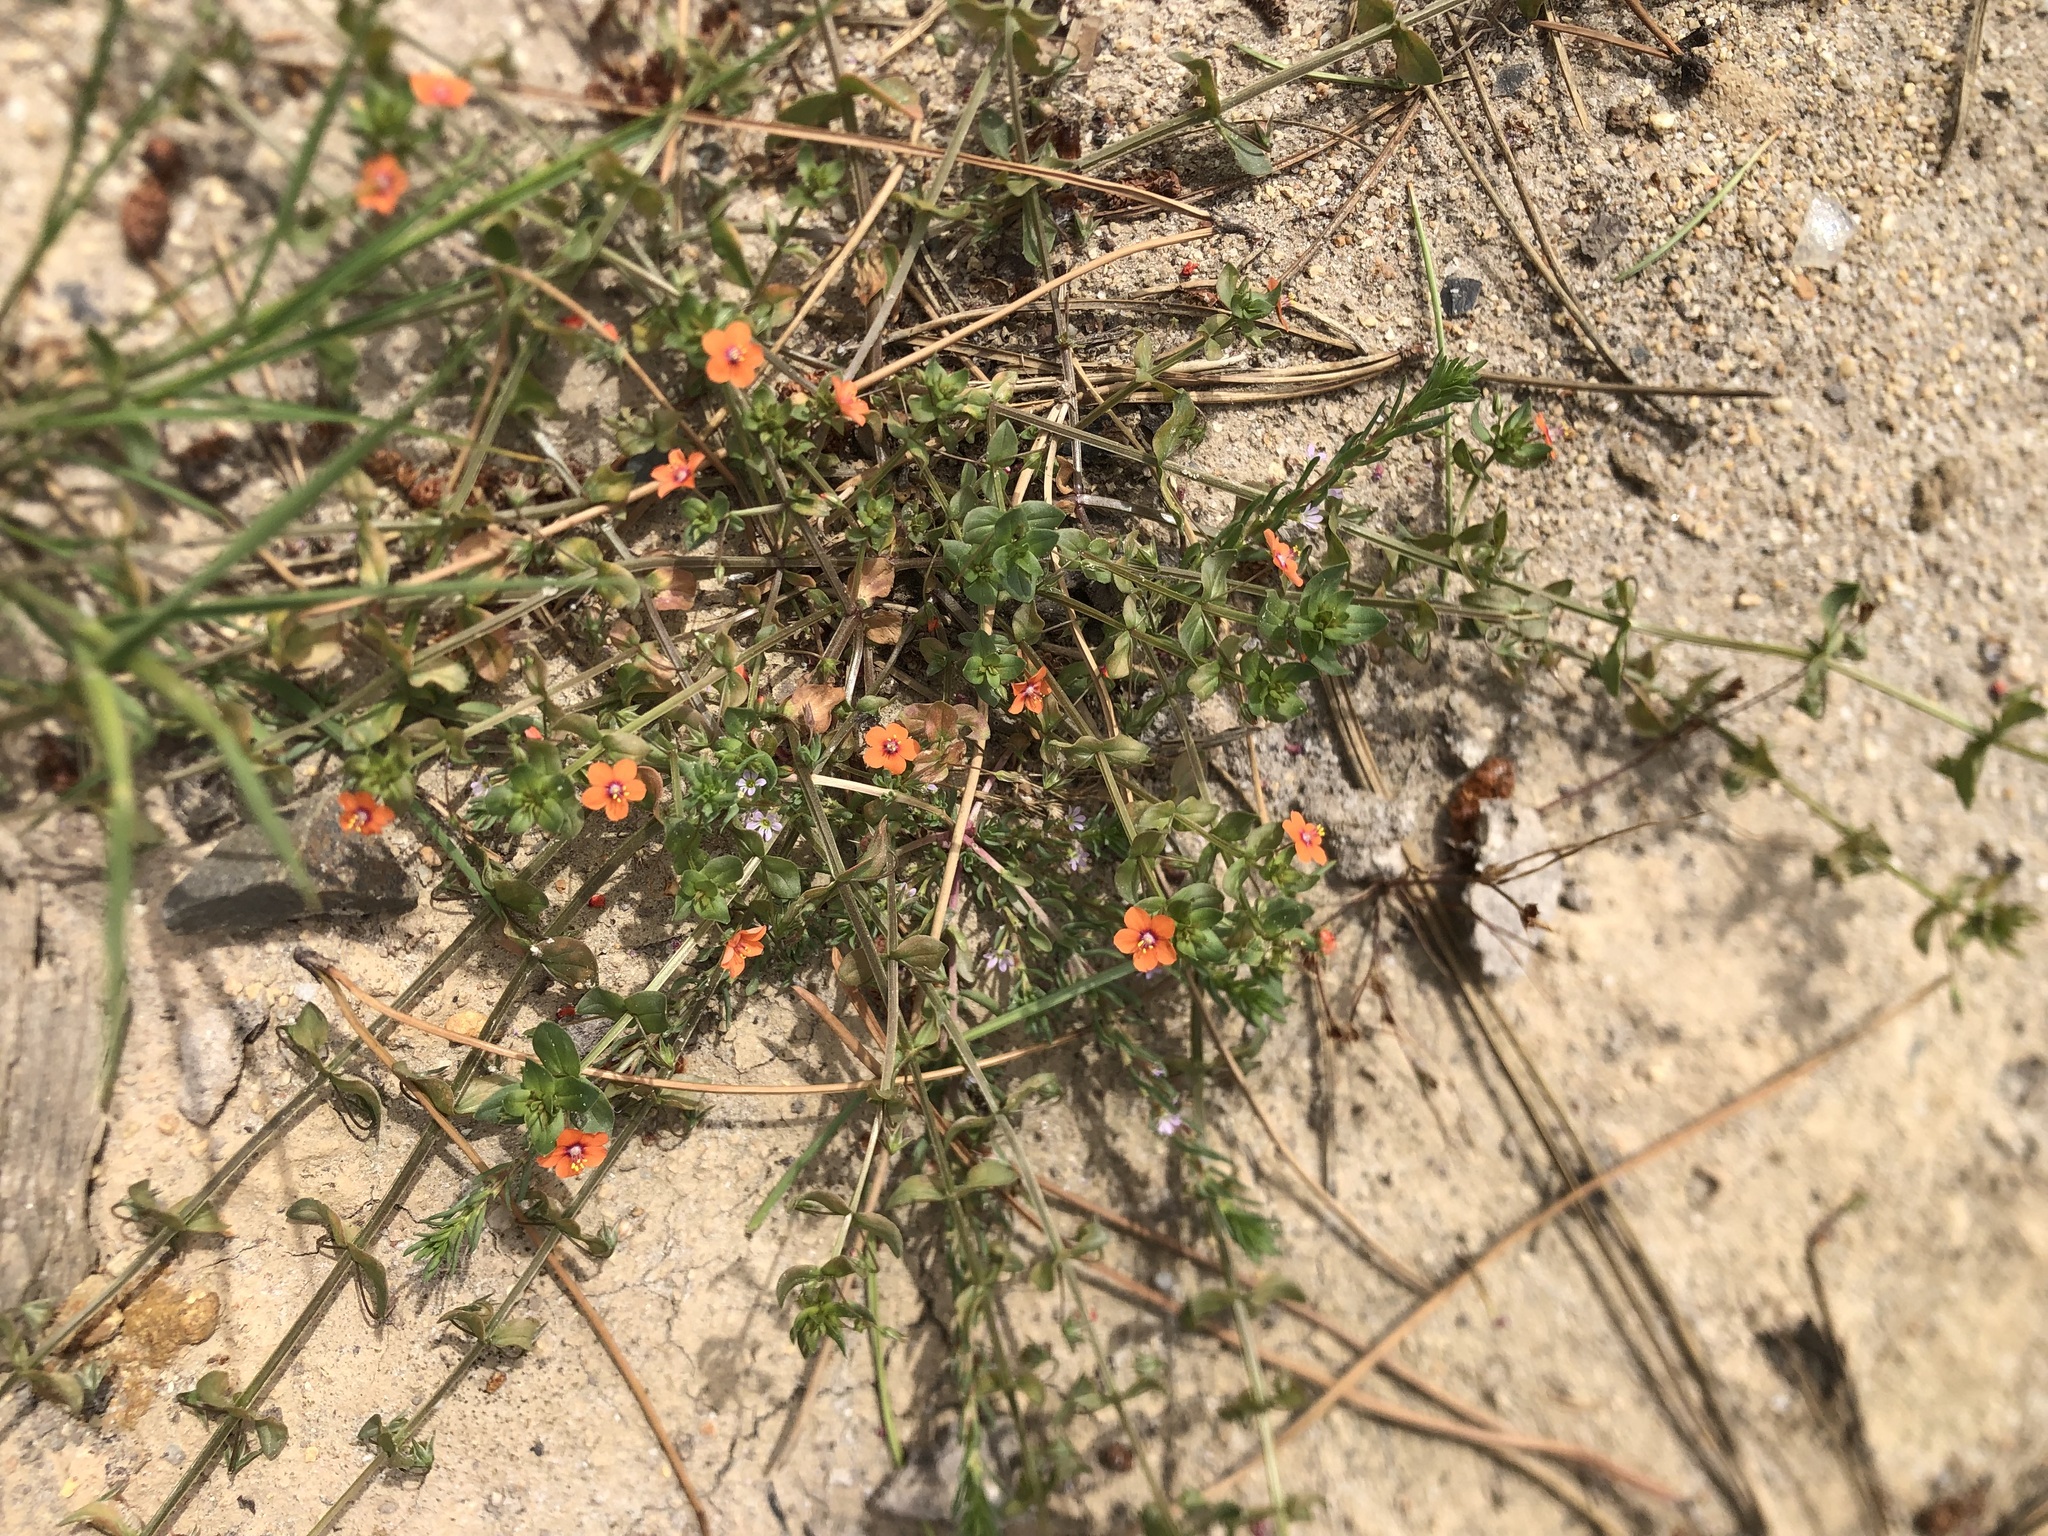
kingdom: Plantae
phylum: Tracheophyta
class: Magnoliopsida
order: Ericales
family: Primulaceae
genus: Lysimachia
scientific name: Lysimachia arvensis
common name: Scarlet pimpernel
